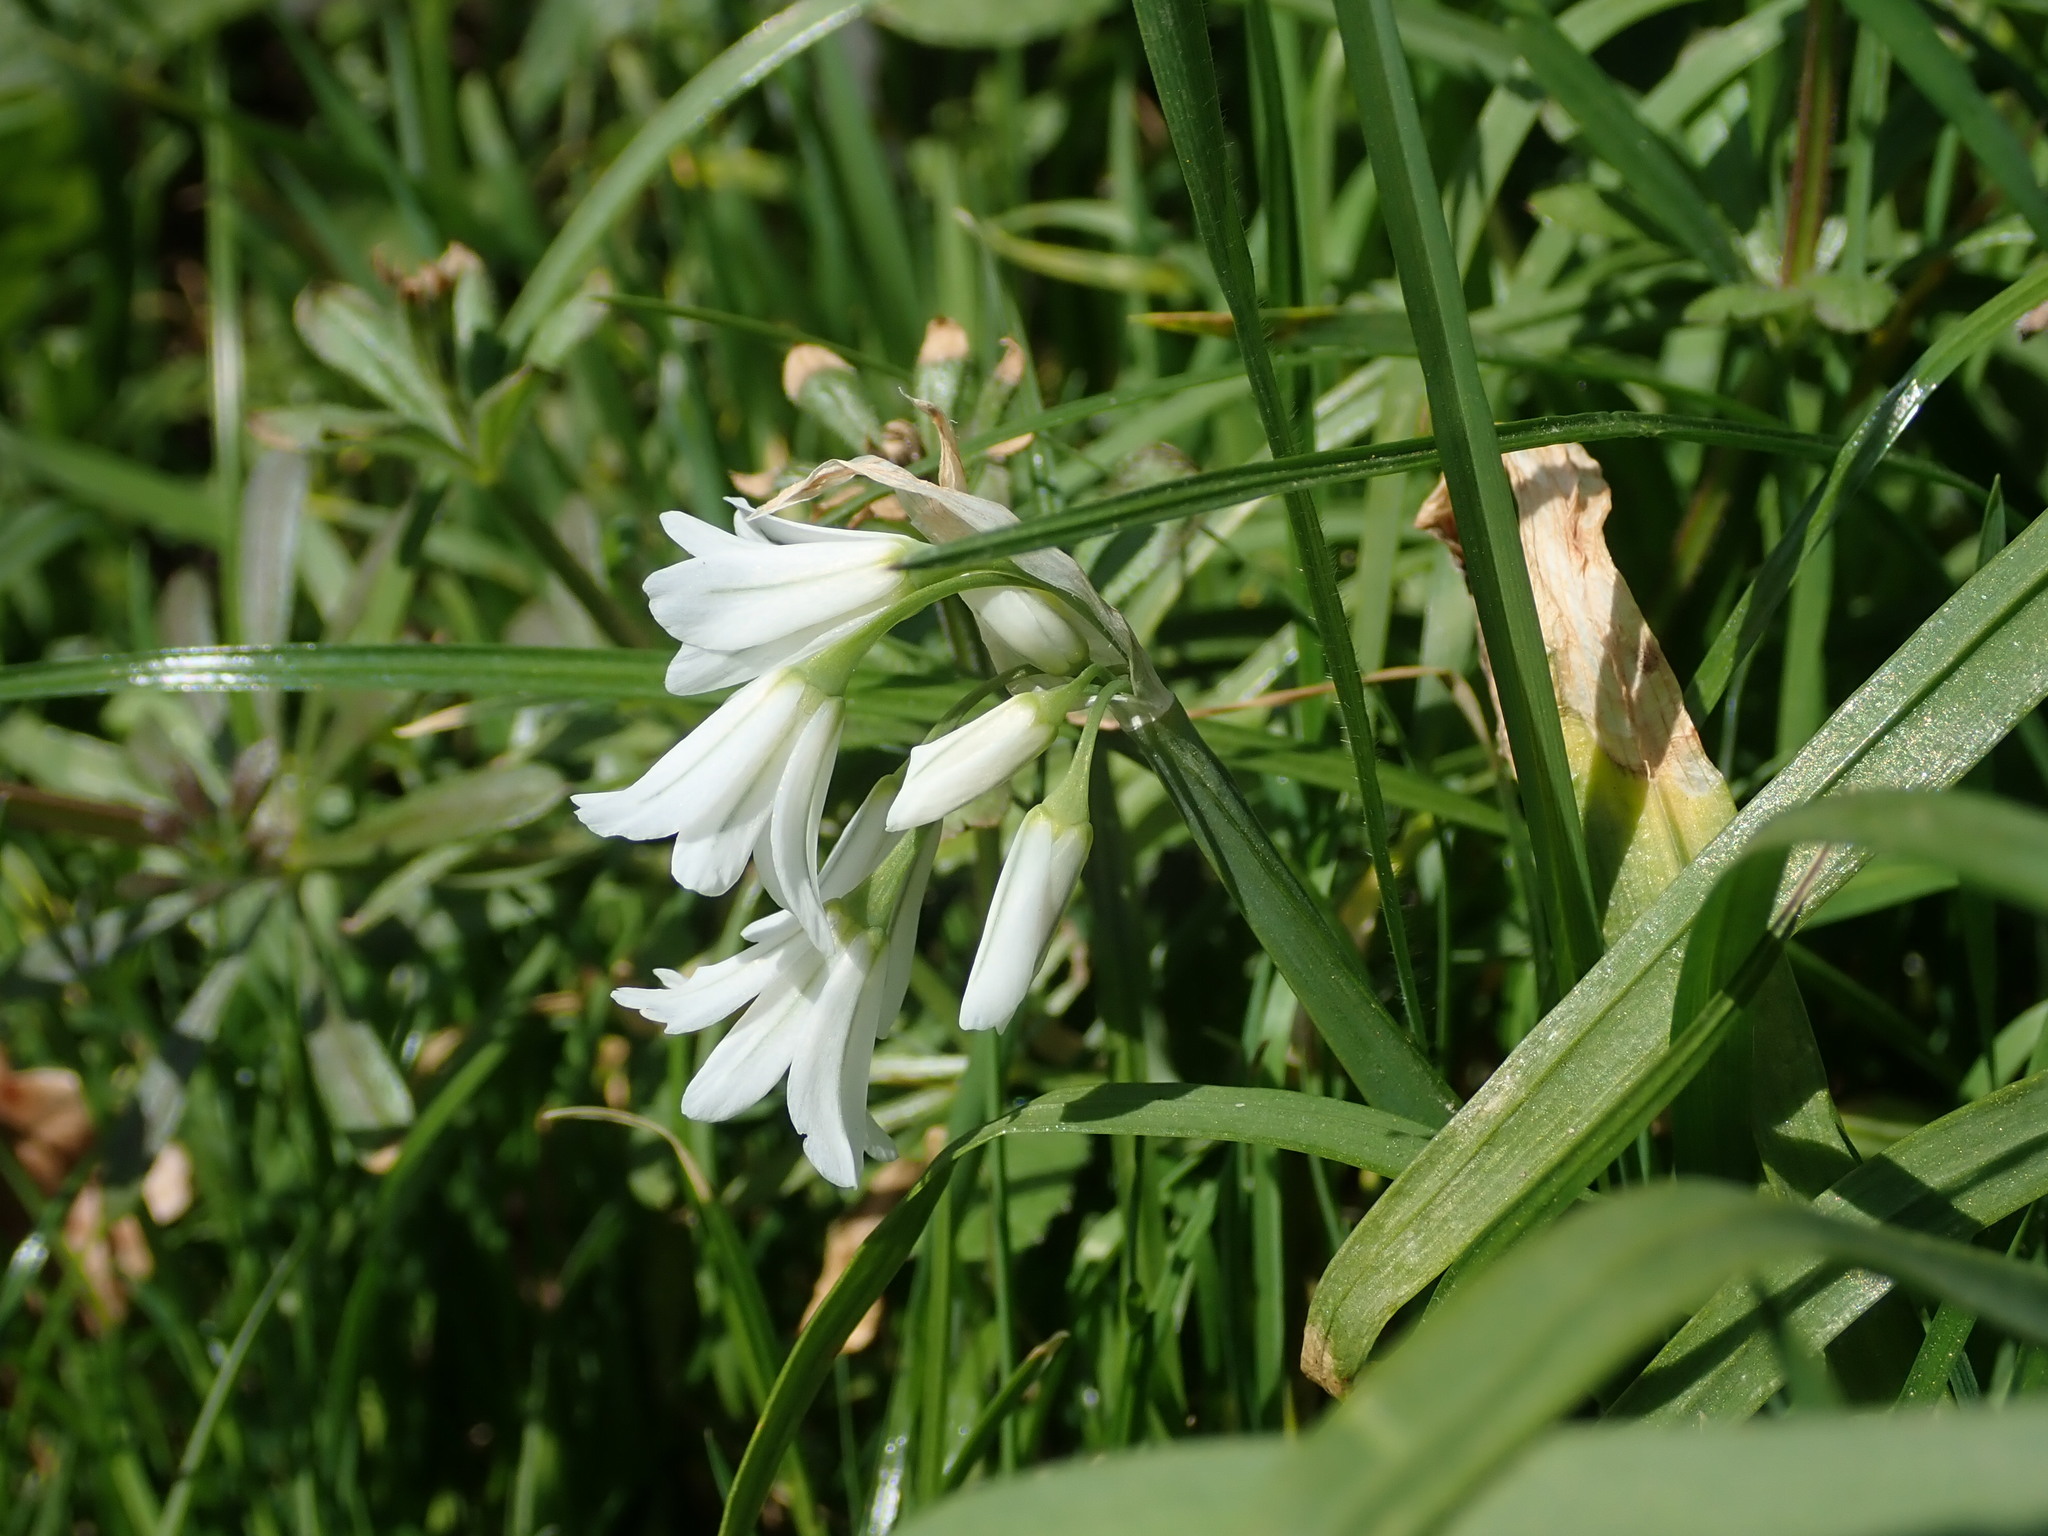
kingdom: Plantae
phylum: Tracheophyta
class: Liliopsida
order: Asparagales
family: Amaryllidaceae
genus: Allium
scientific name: Allium triquetrum
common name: Three-cornered garlic
